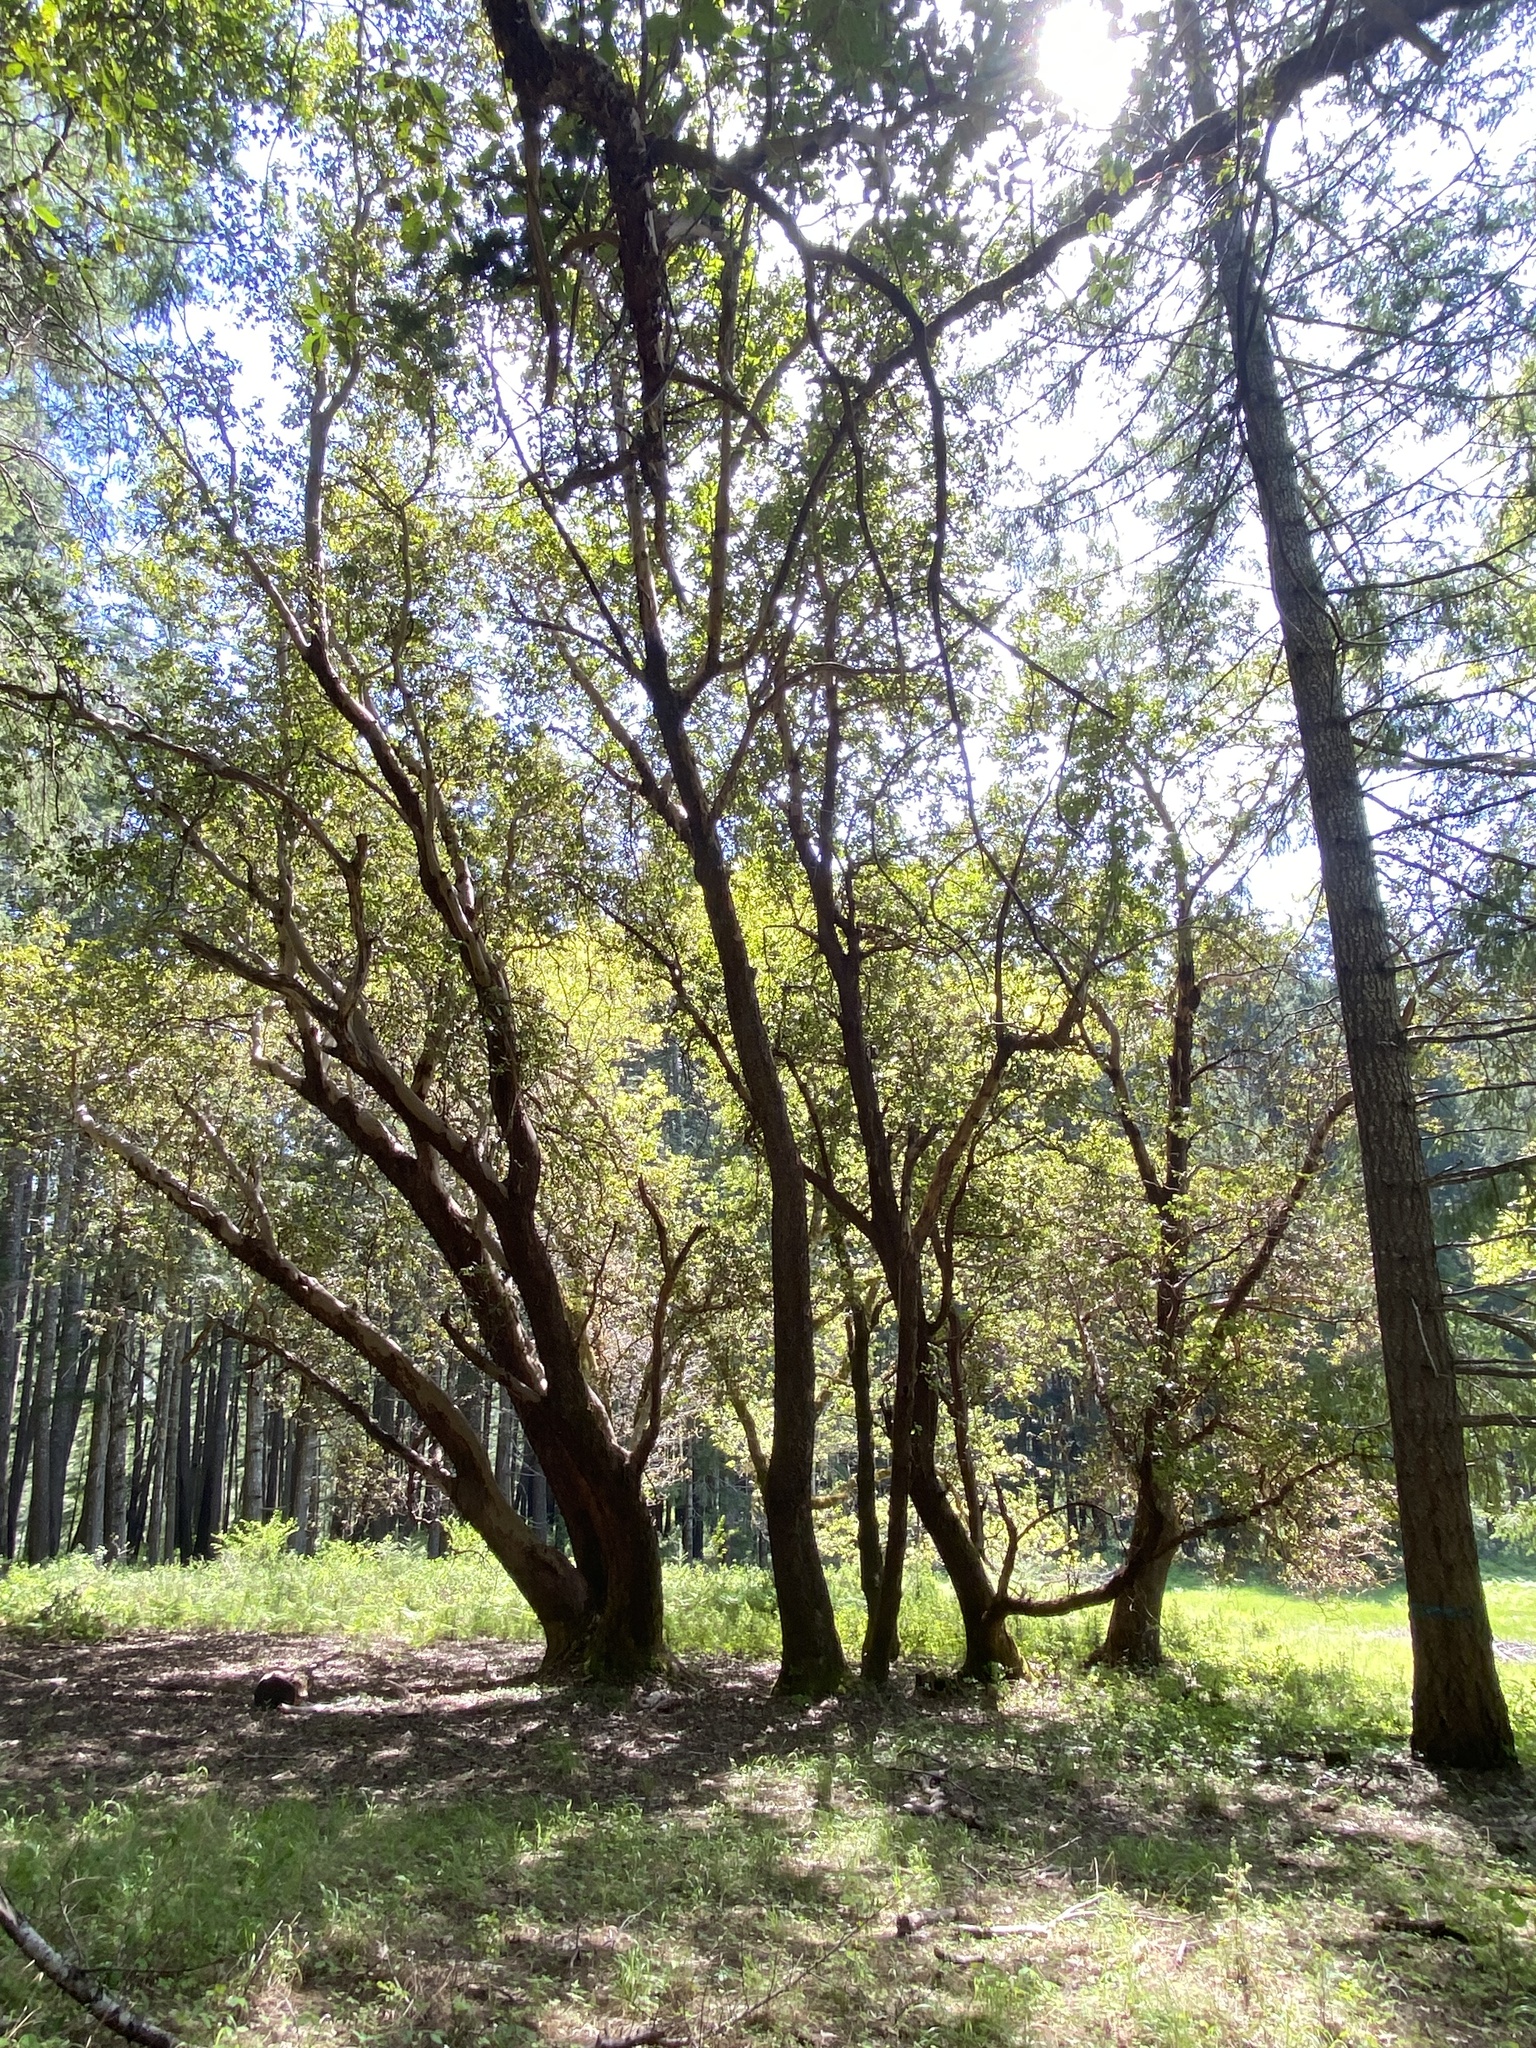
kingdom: Plantae
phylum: Tracheophyta
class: Magnoliopsida
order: Ericales
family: Ericaceae
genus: Arbutus
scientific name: Arbutus menziesii
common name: Pacific madrone
